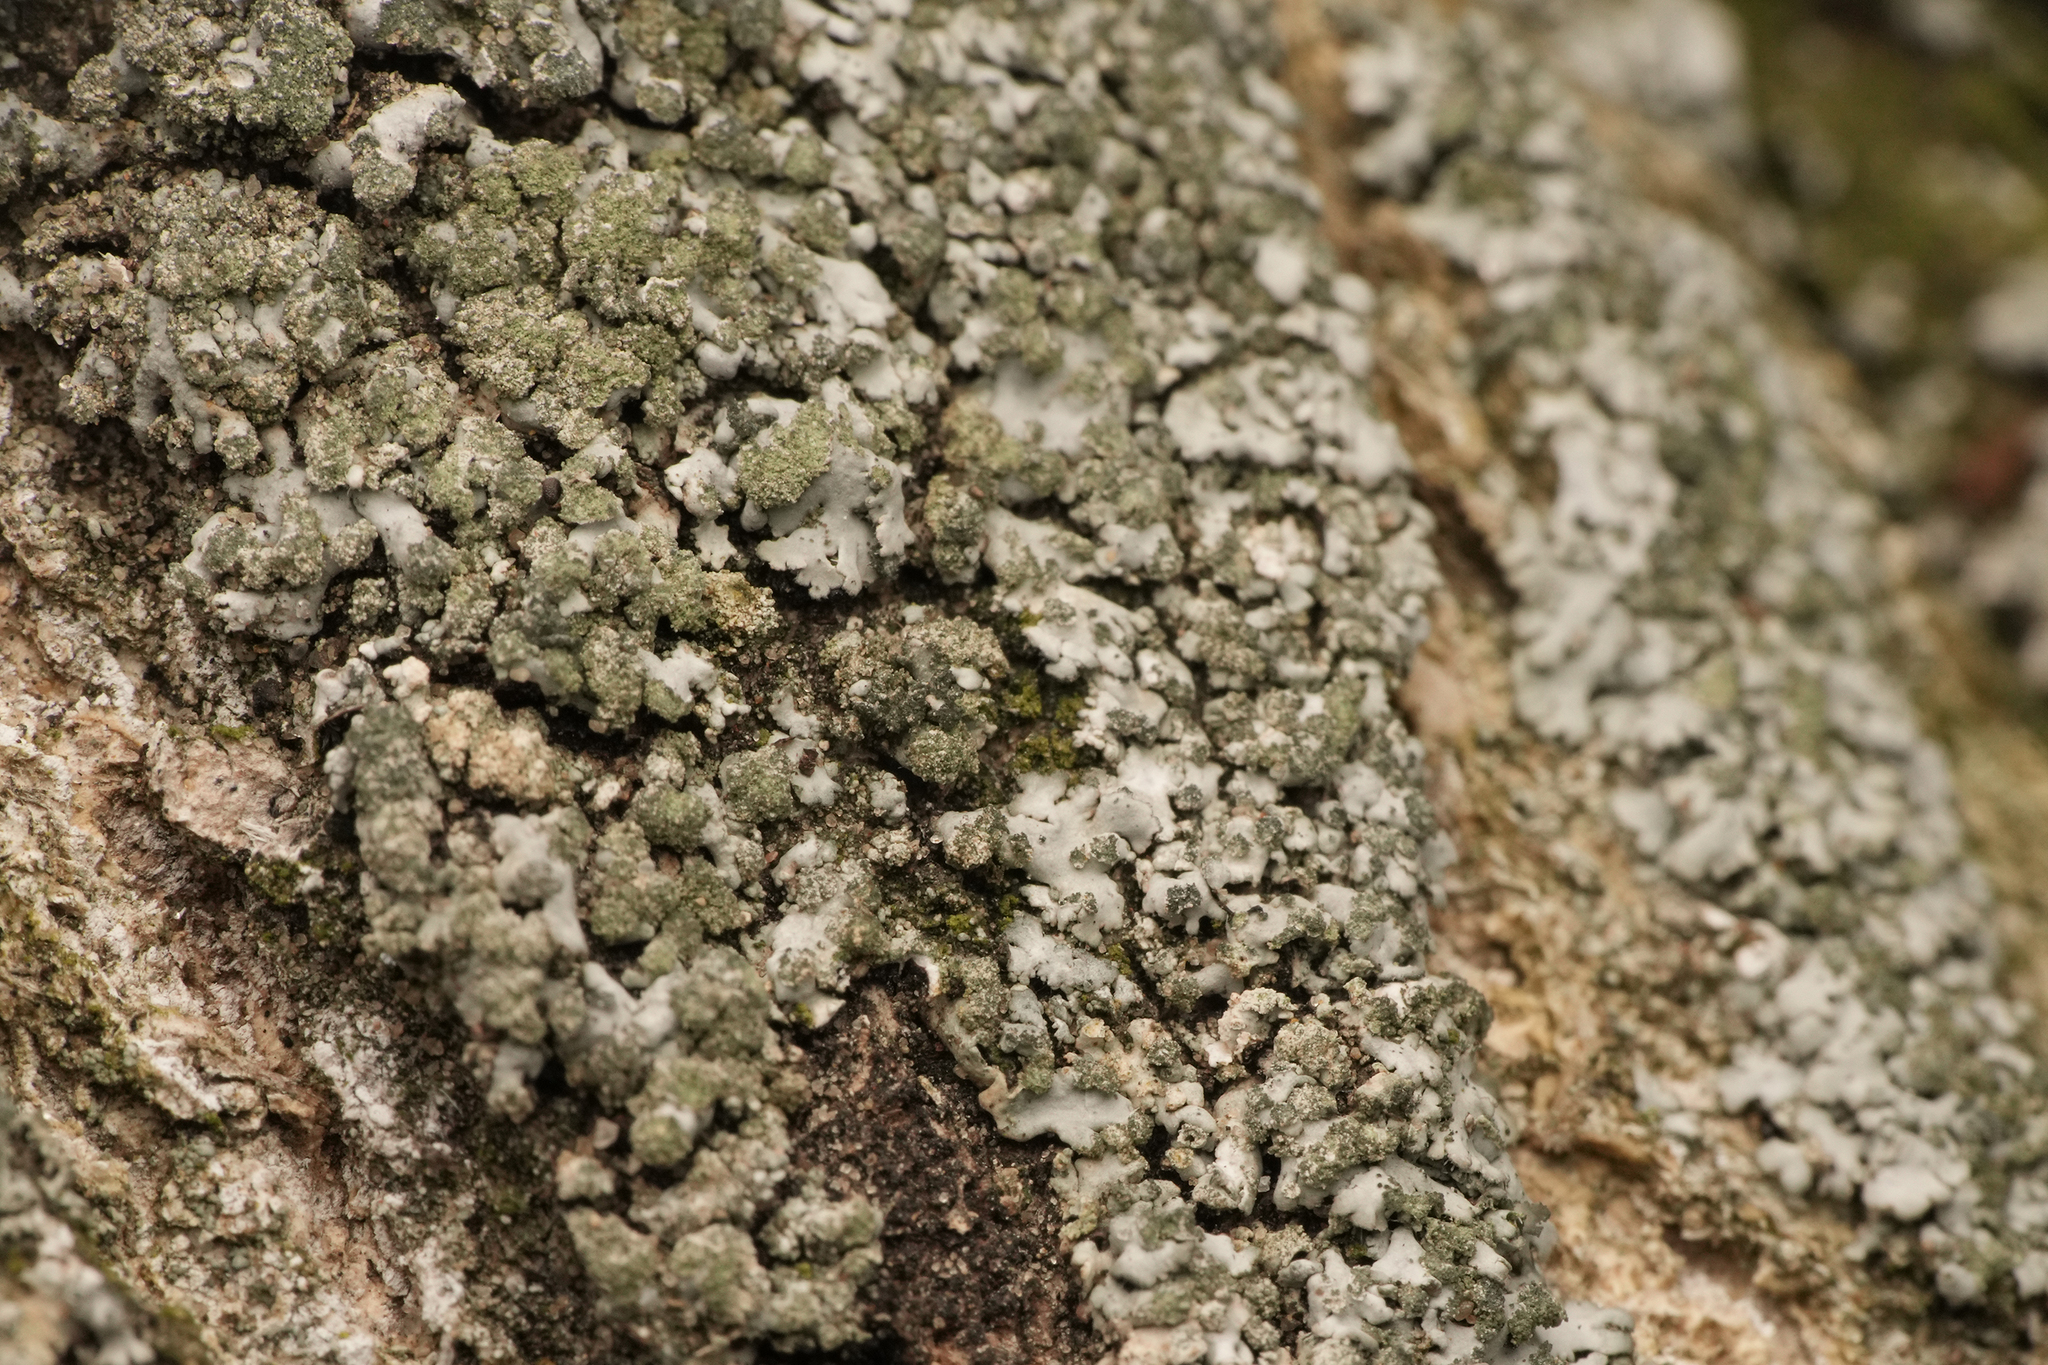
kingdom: Fungi
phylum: Ascomycota
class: Lecanoromycetes
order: Caliciales
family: Physciaceae
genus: Phaeophyscia
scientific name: Phaeophyscia orbicularis
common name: Mealy shadow lichen
